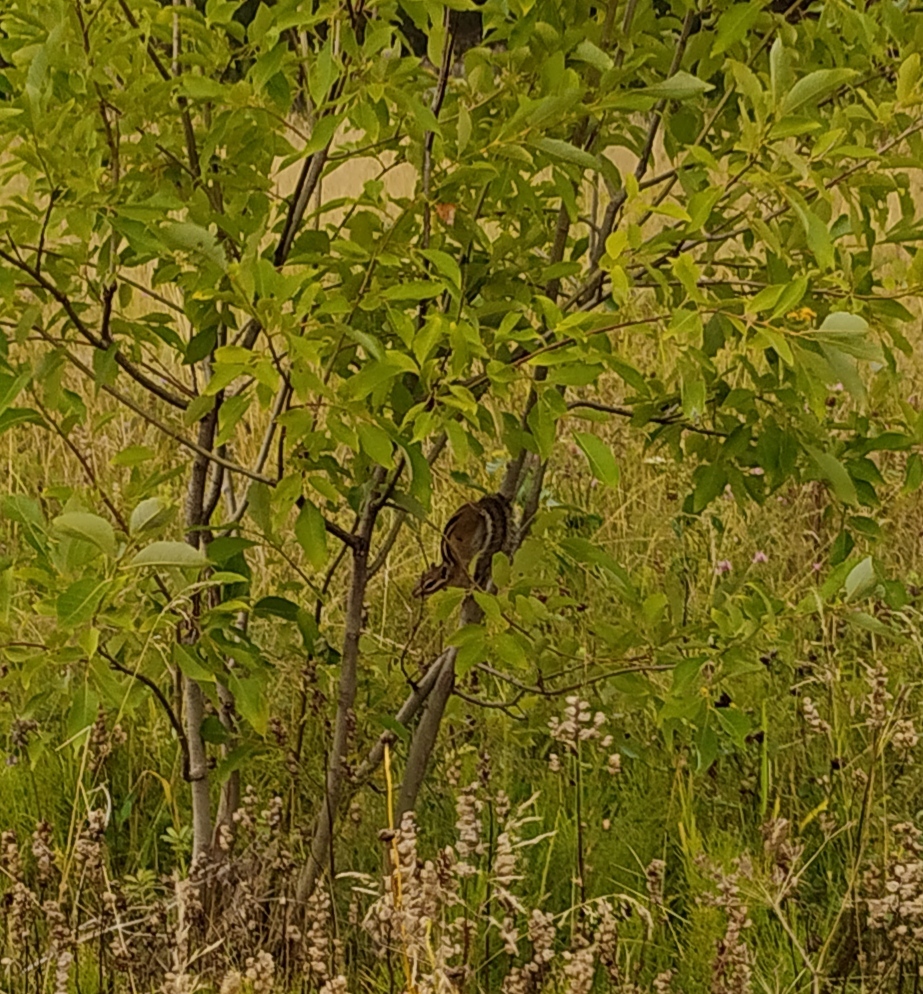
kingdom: Animalia
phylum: Chordata
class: Mammalia
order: Rodentia
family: Sciuridae
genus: Tamias
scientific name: Tamias sibiricus
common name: Siberian chipmunk
